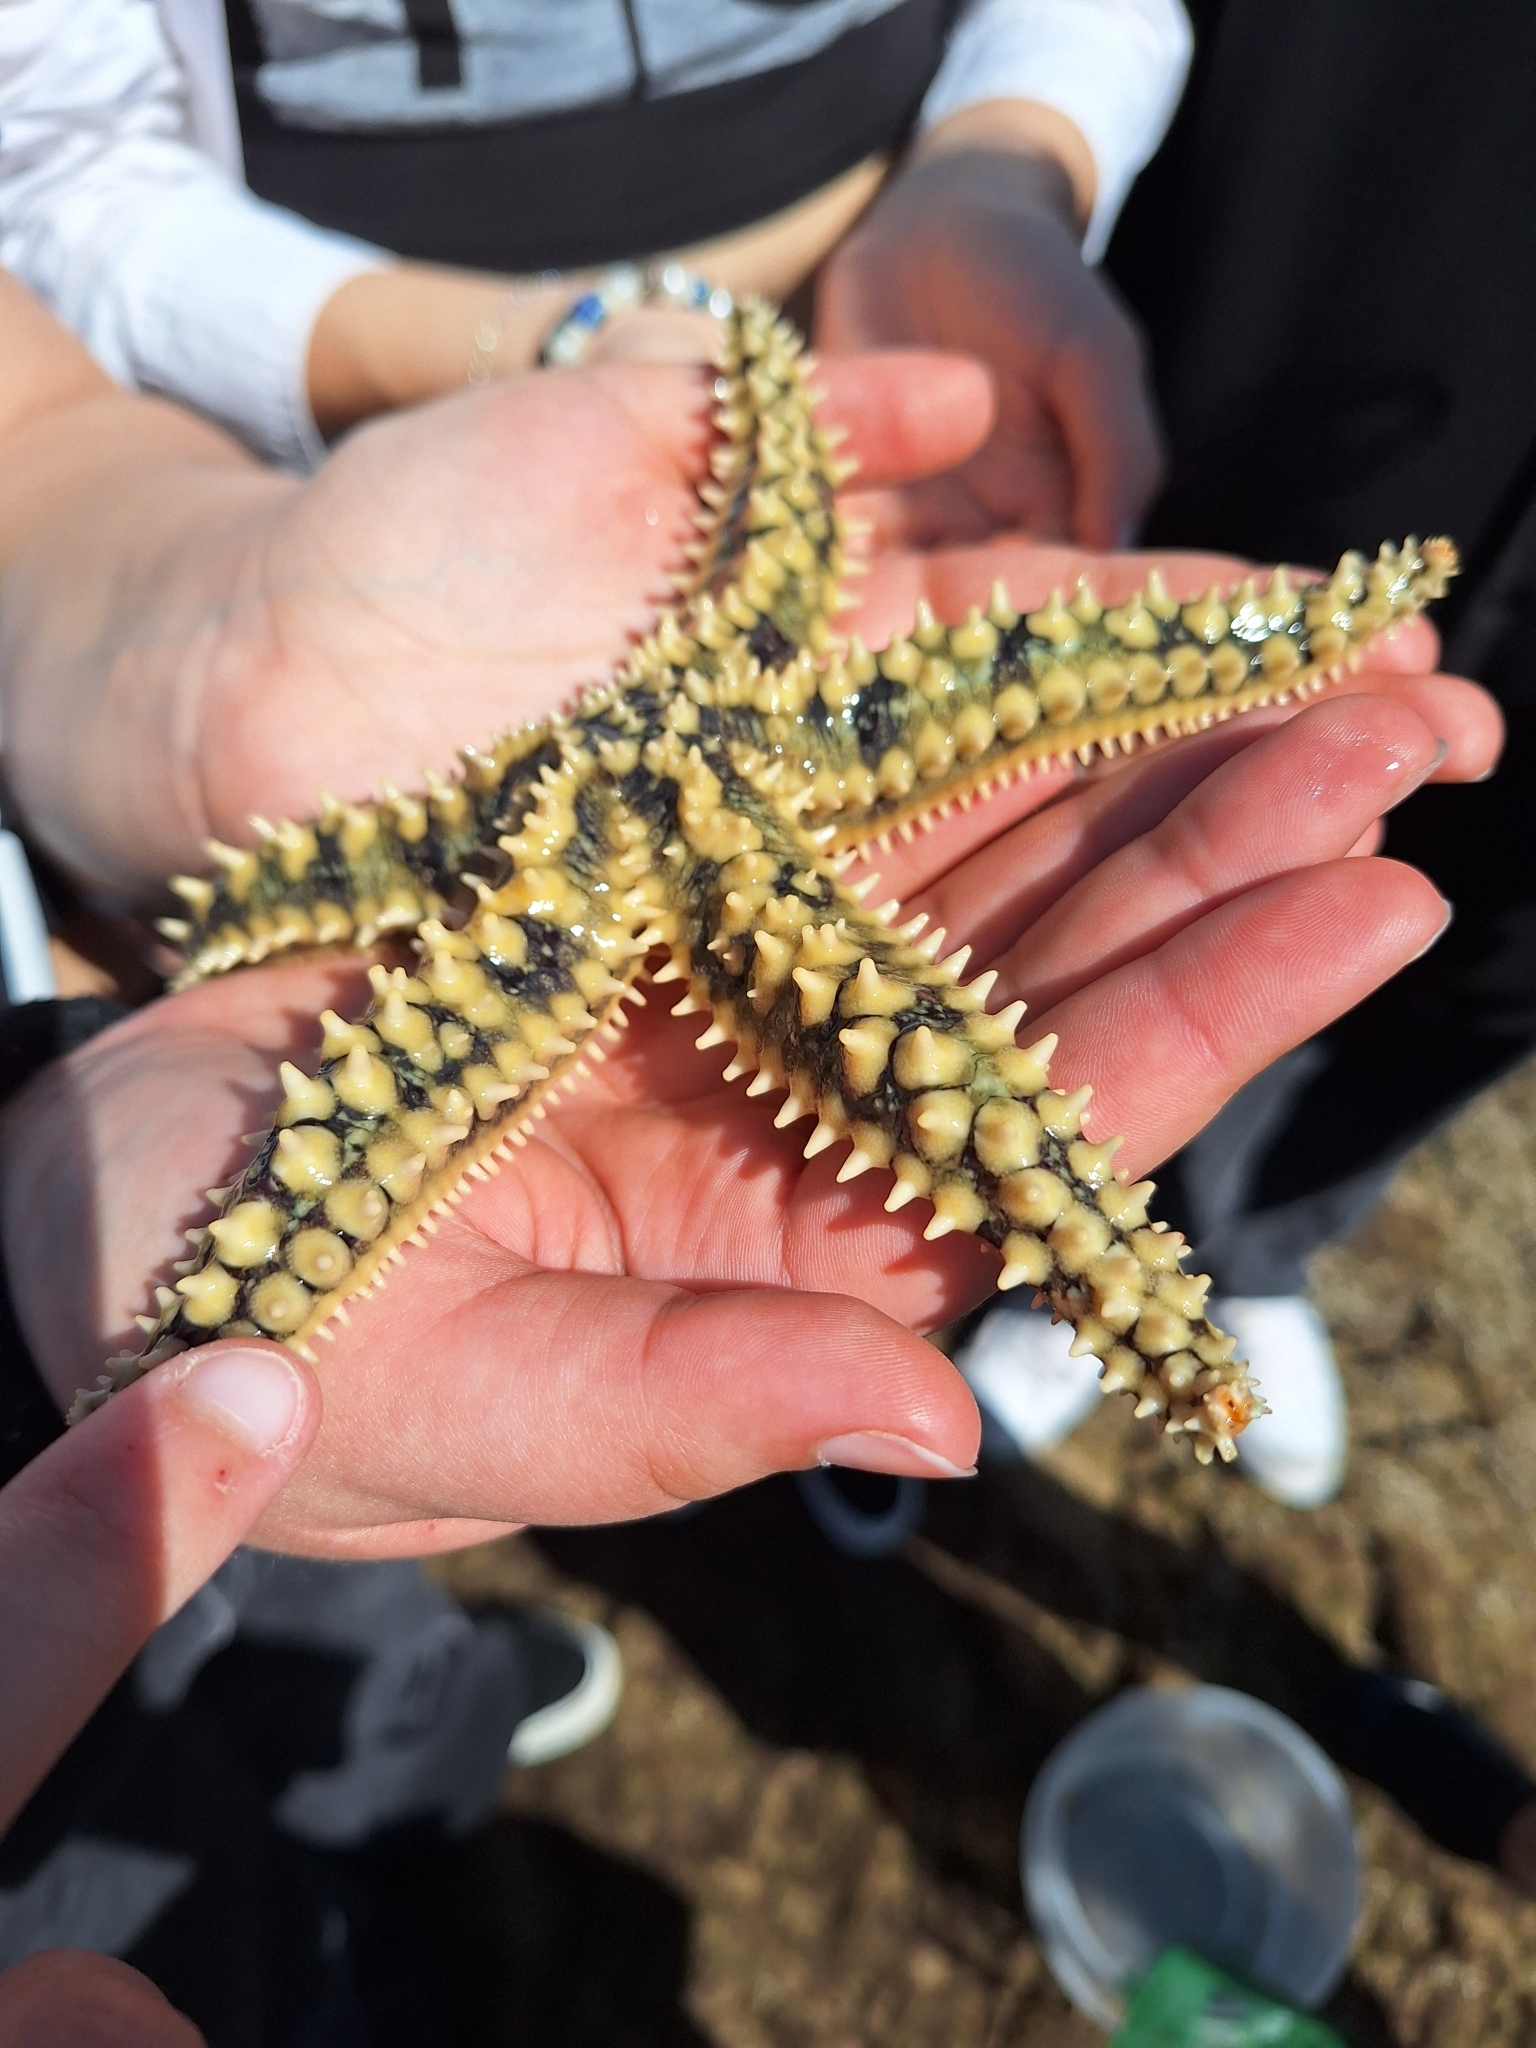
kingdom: Animalia
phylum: Echinodermata
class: Asteroidea
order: Forcipulatida
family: Asteriidae
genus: Marthasterias
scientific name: Marthasterias glacialis
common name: Spiny starfish
